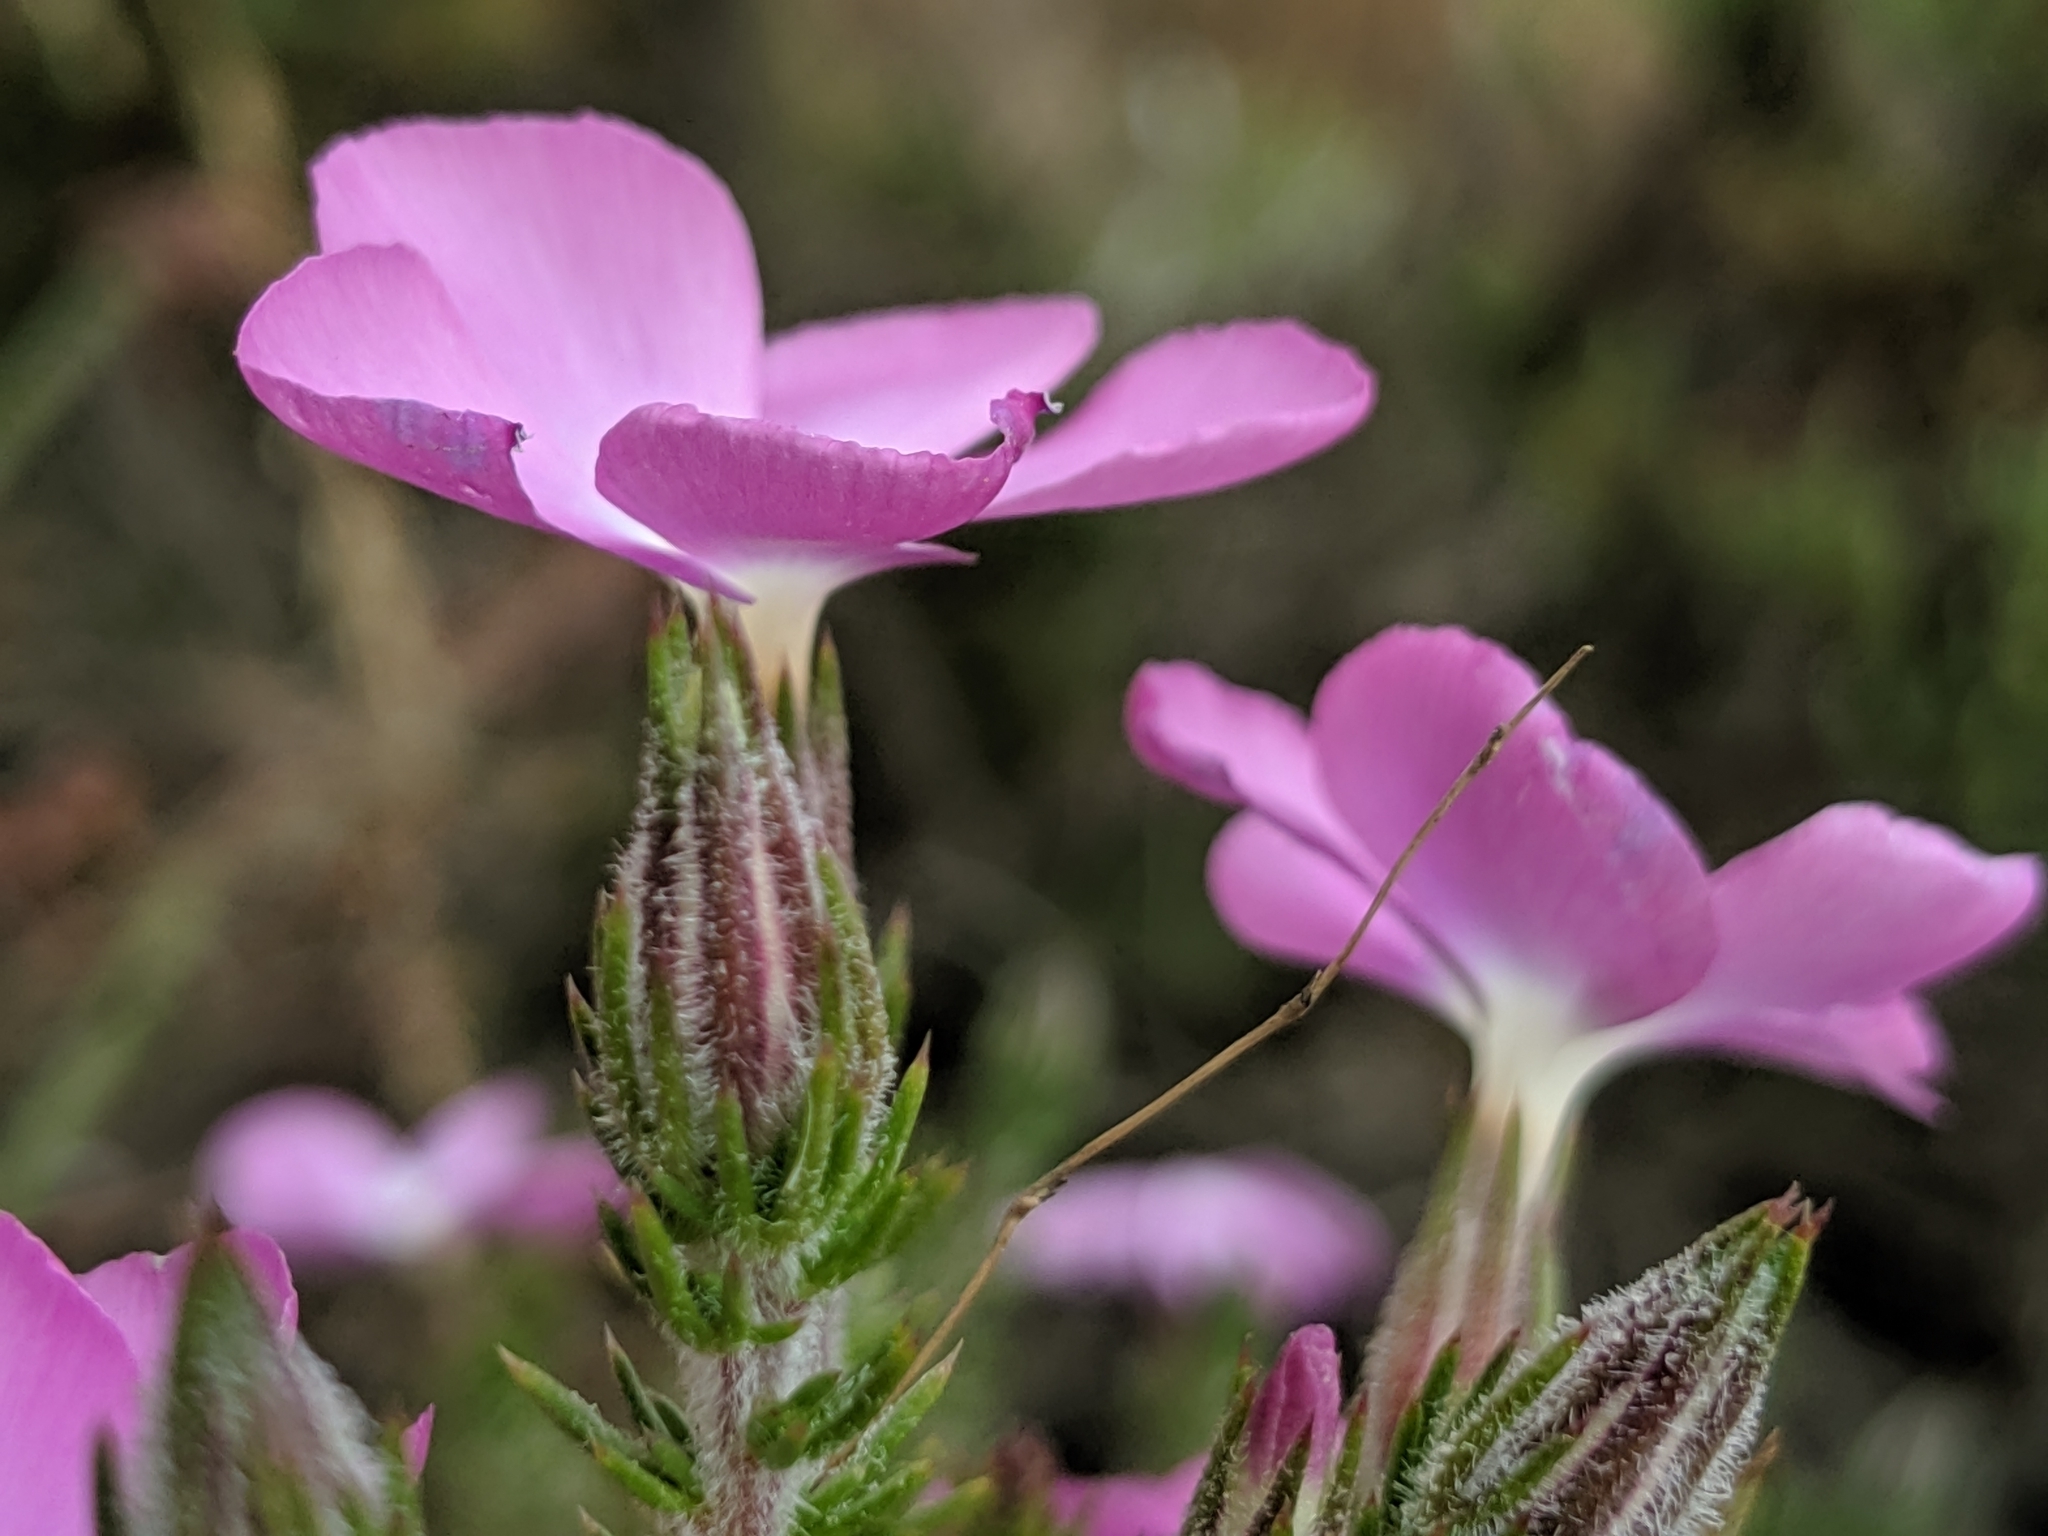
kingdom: Plantae
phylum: Tracheophyta
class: Magnoliopsida
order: Ericales
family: Polemoniaceae
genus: Linanthus
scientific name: Linanthus californicus
